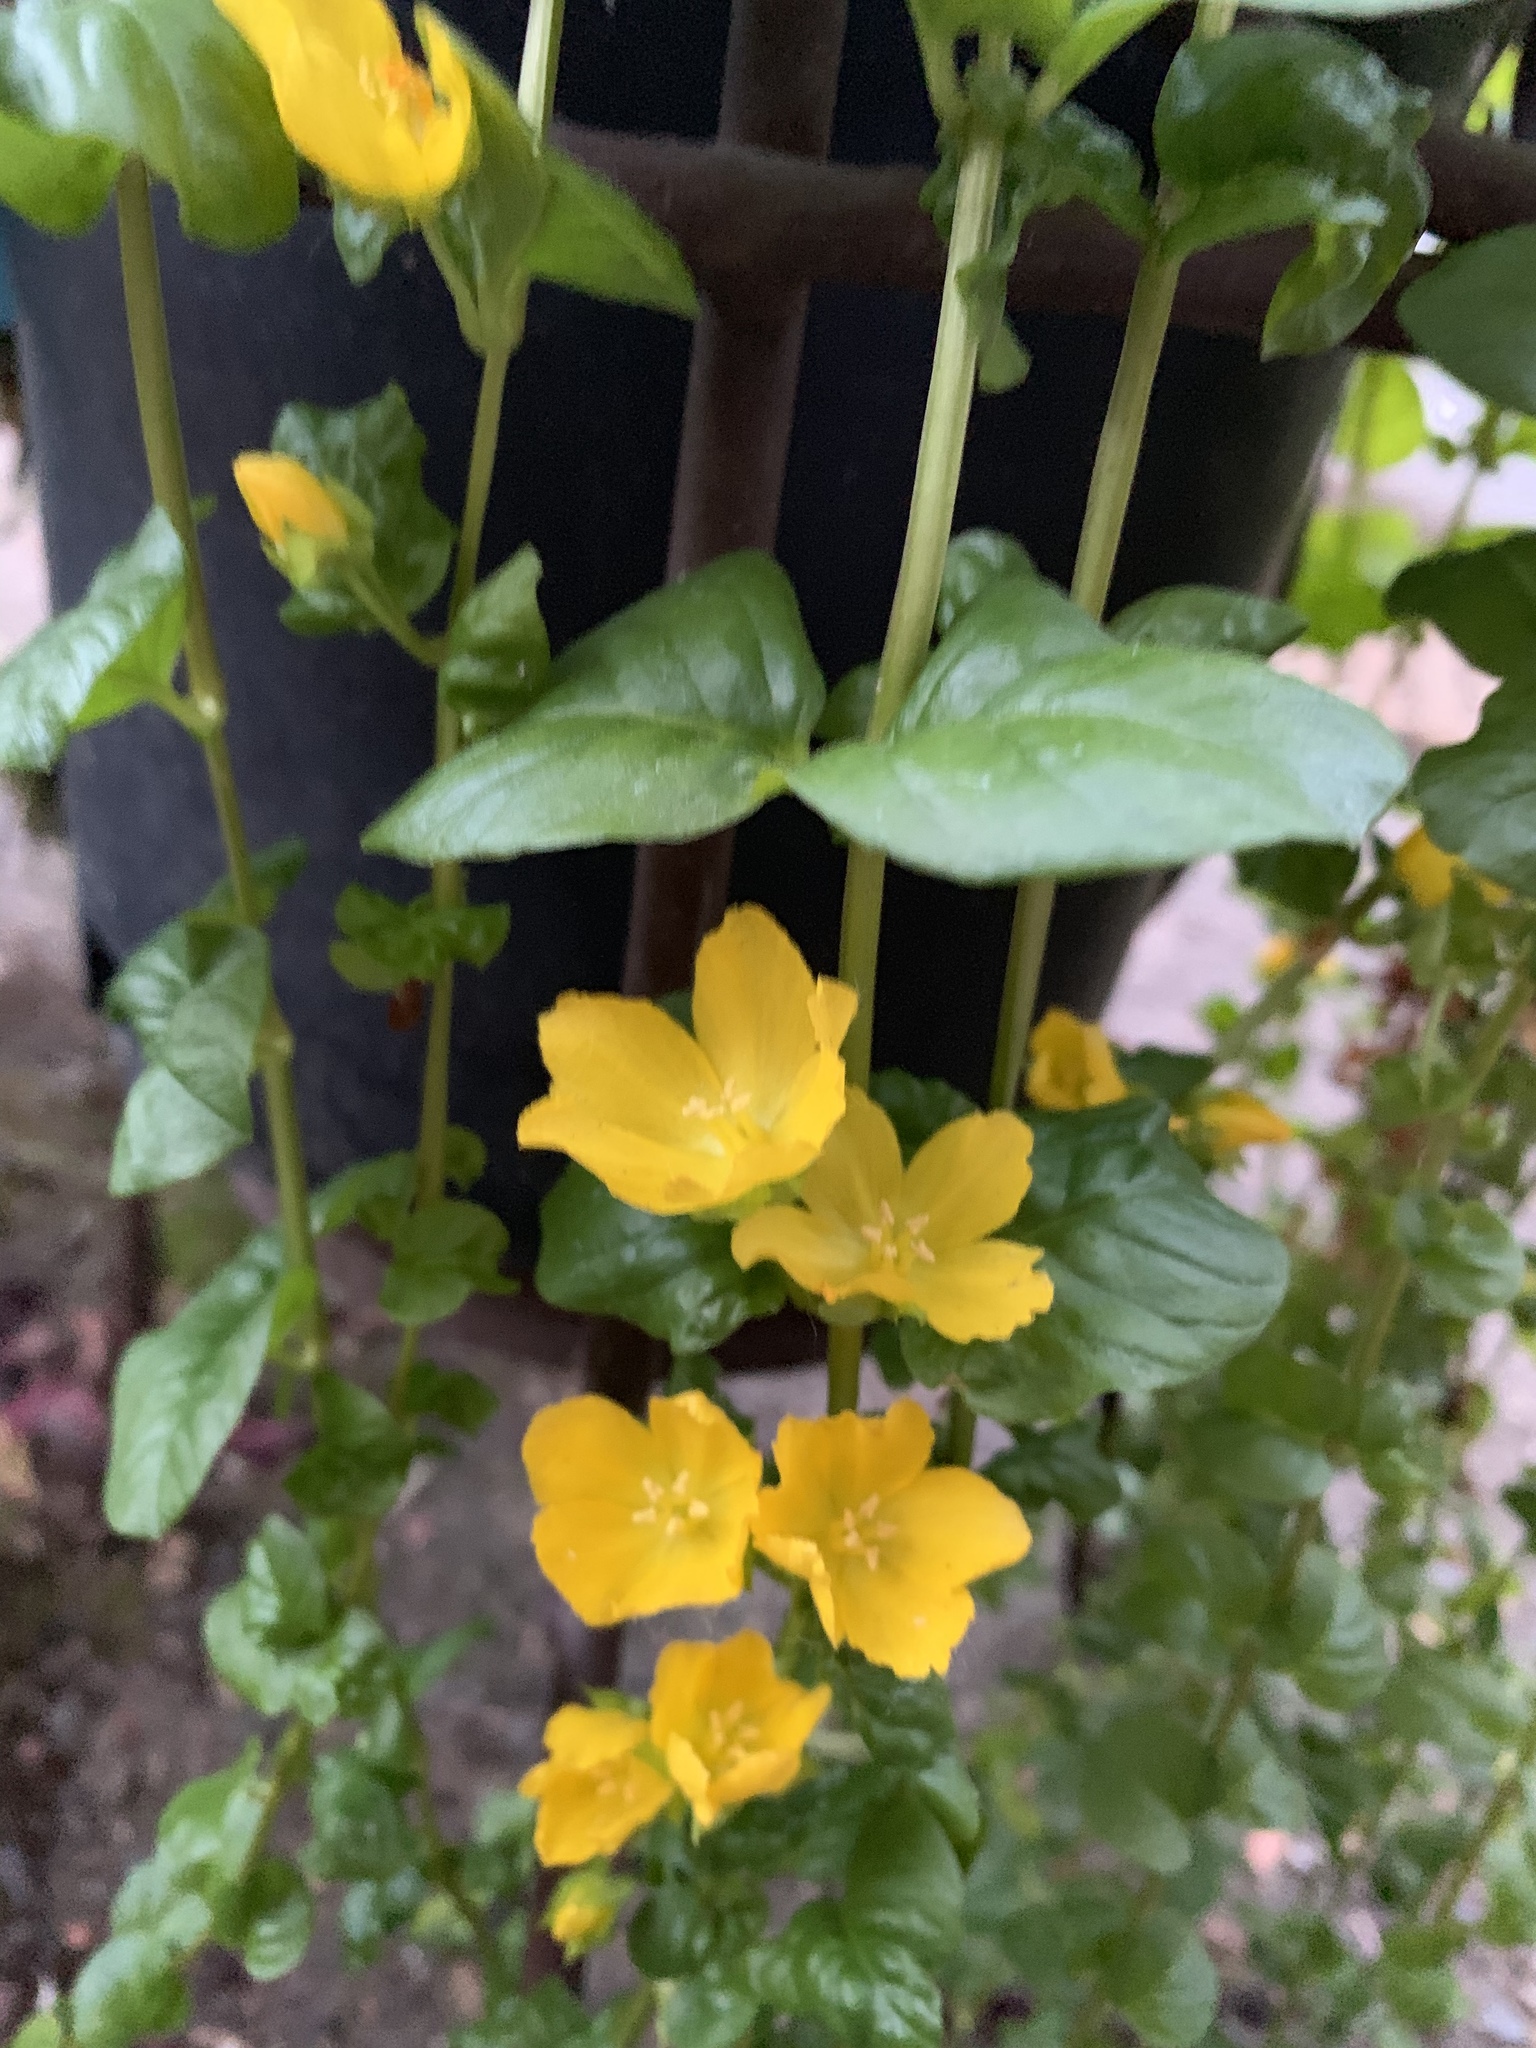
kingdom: Plantae
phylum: Tracheophyta
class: Magnoliopsida
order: Ericales
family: Primulaceae
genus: Lysimachia
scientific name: Lysimachia nummularia
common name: Moneywort
